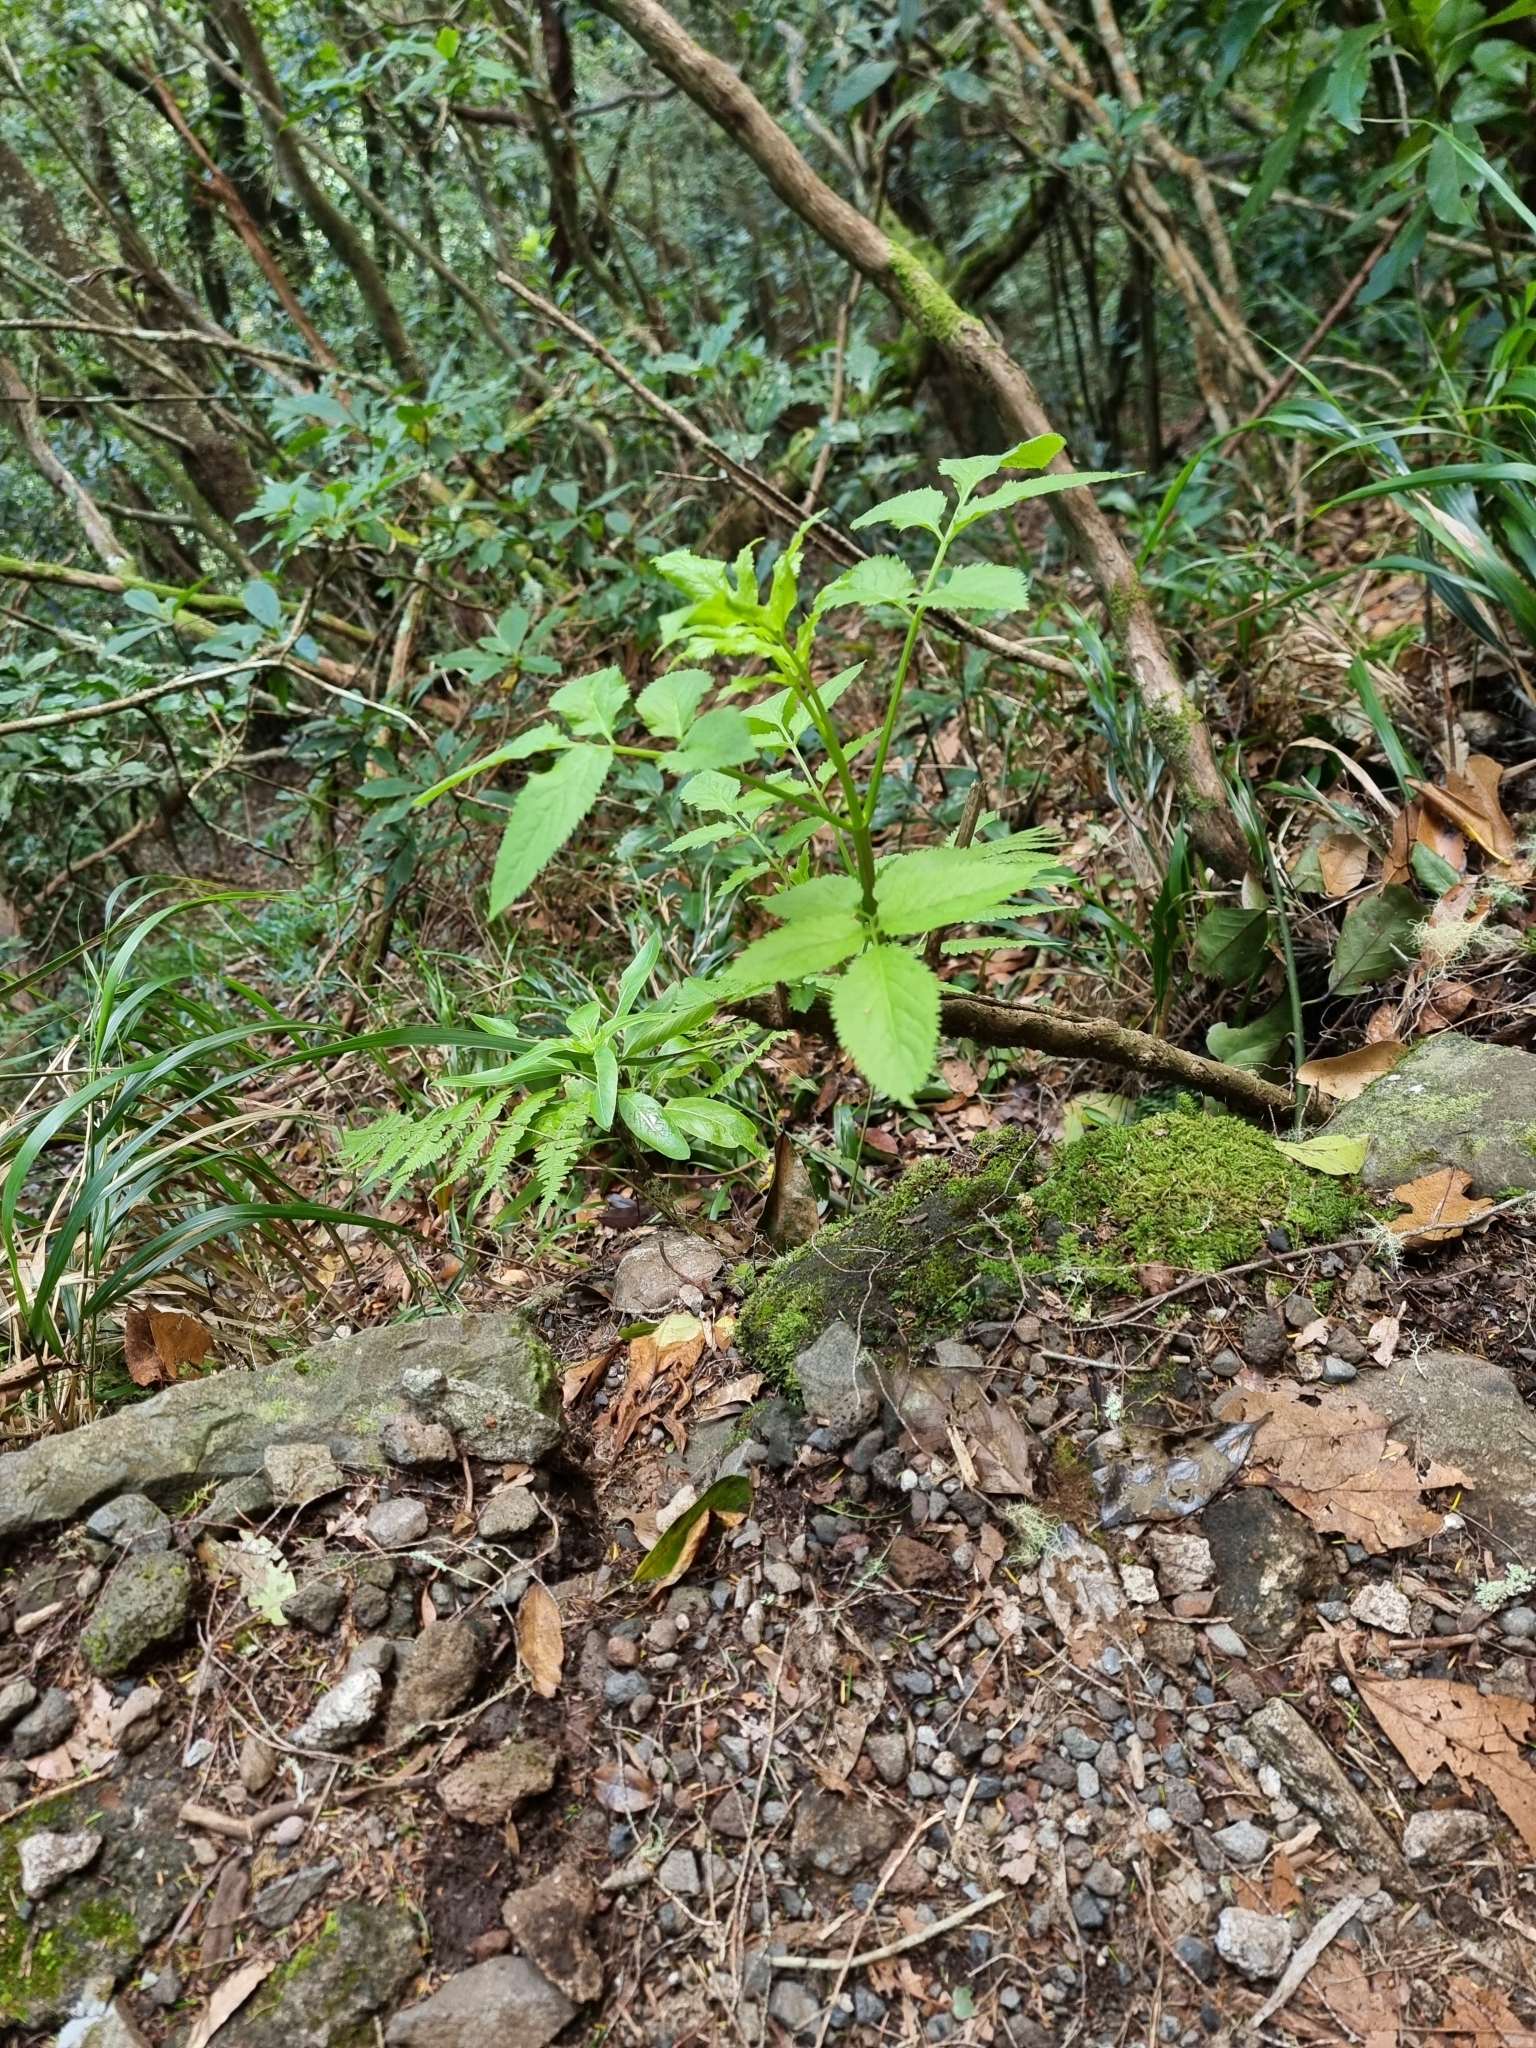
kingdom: Plantae
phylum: Tracheophyta
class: Magnoliopsida
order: Dipsacales
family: Viburnaceae
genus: Sambucus
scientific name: Sambucus lanceolata
